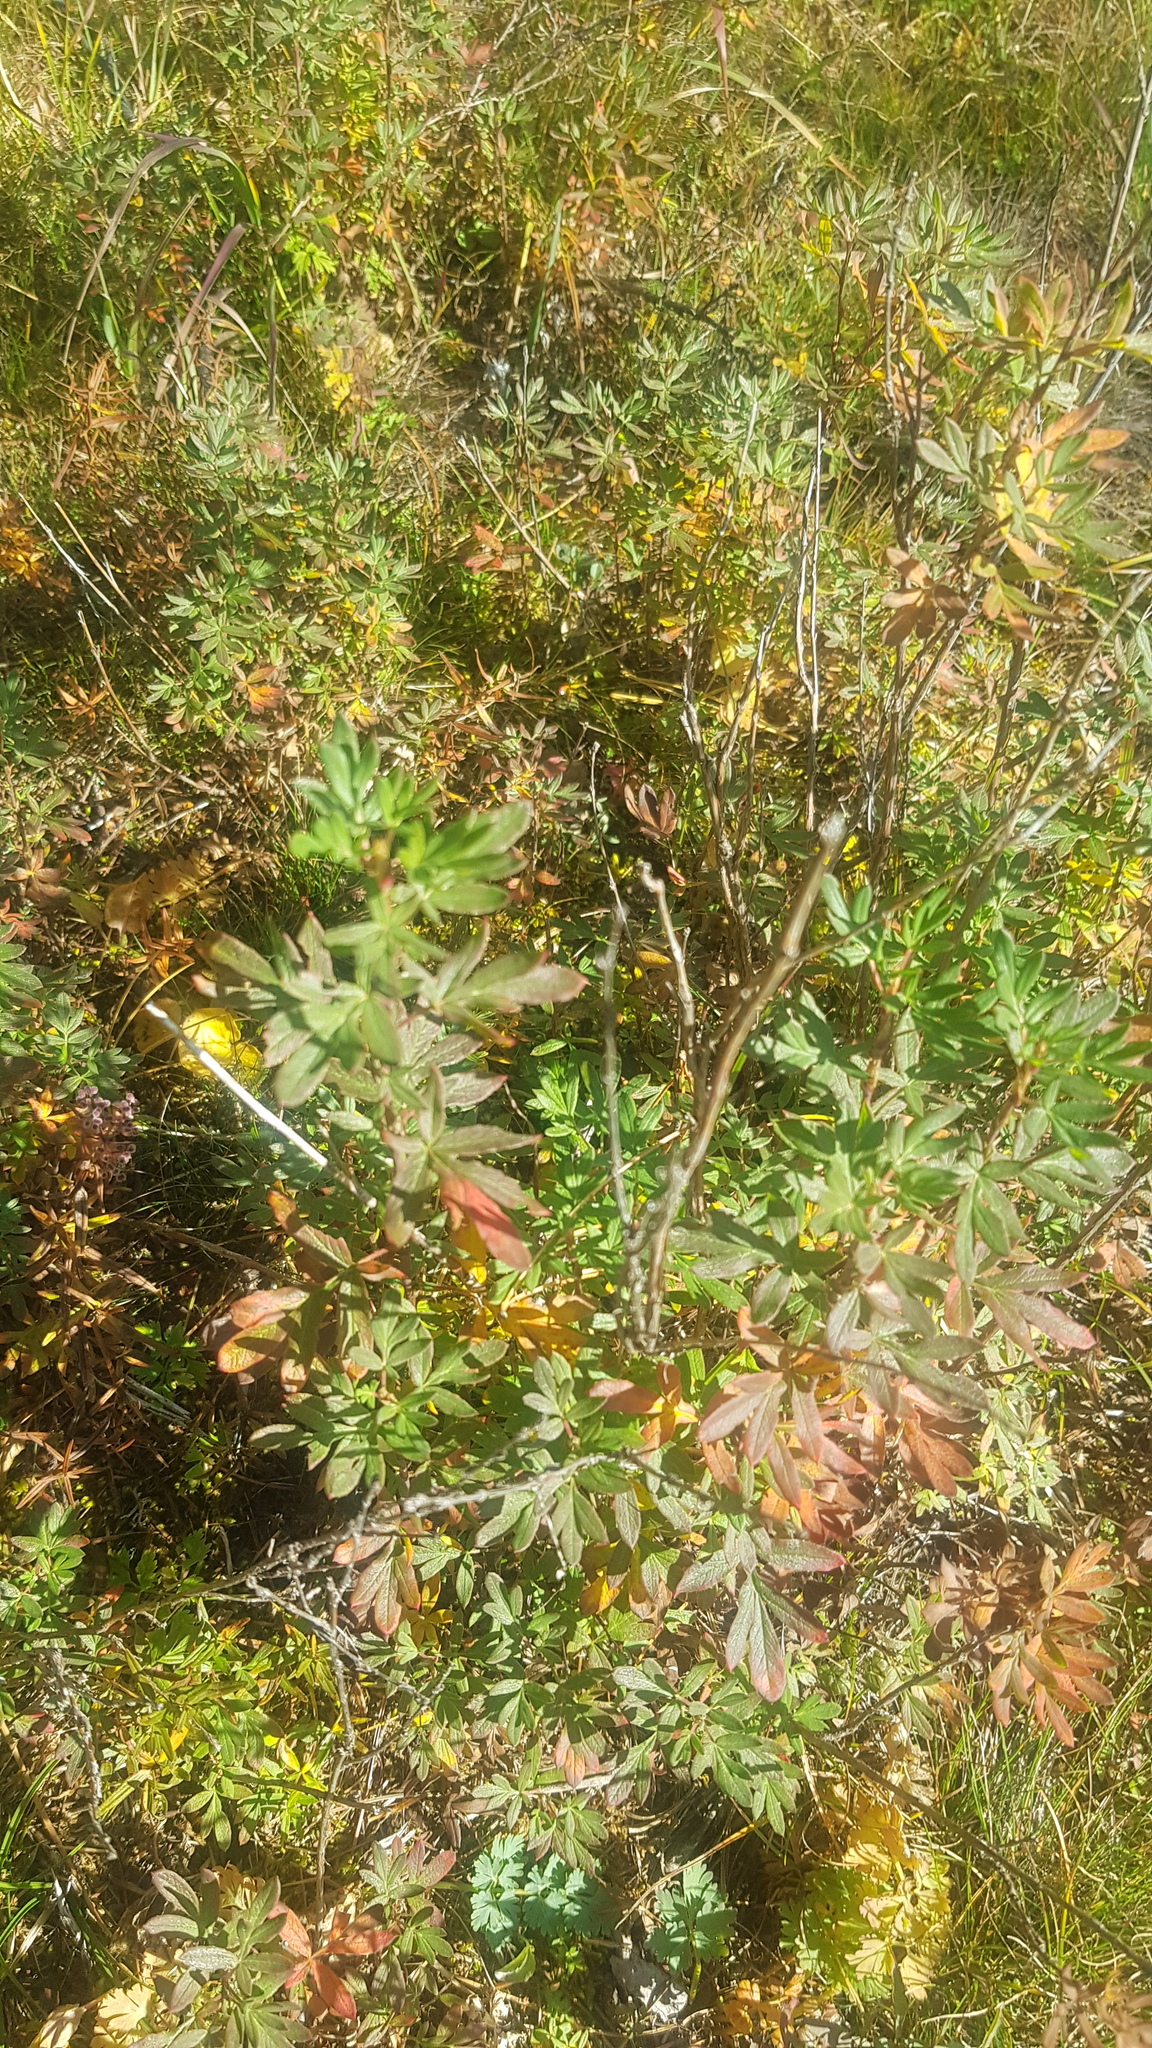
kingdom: Plantae
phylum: Tracheophyta
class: Magnoliopsida
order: Rosales
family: Rosaceae
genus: Dasiphora
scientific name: Dasiphora fruticosa
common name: Shrubby cinquefoil
